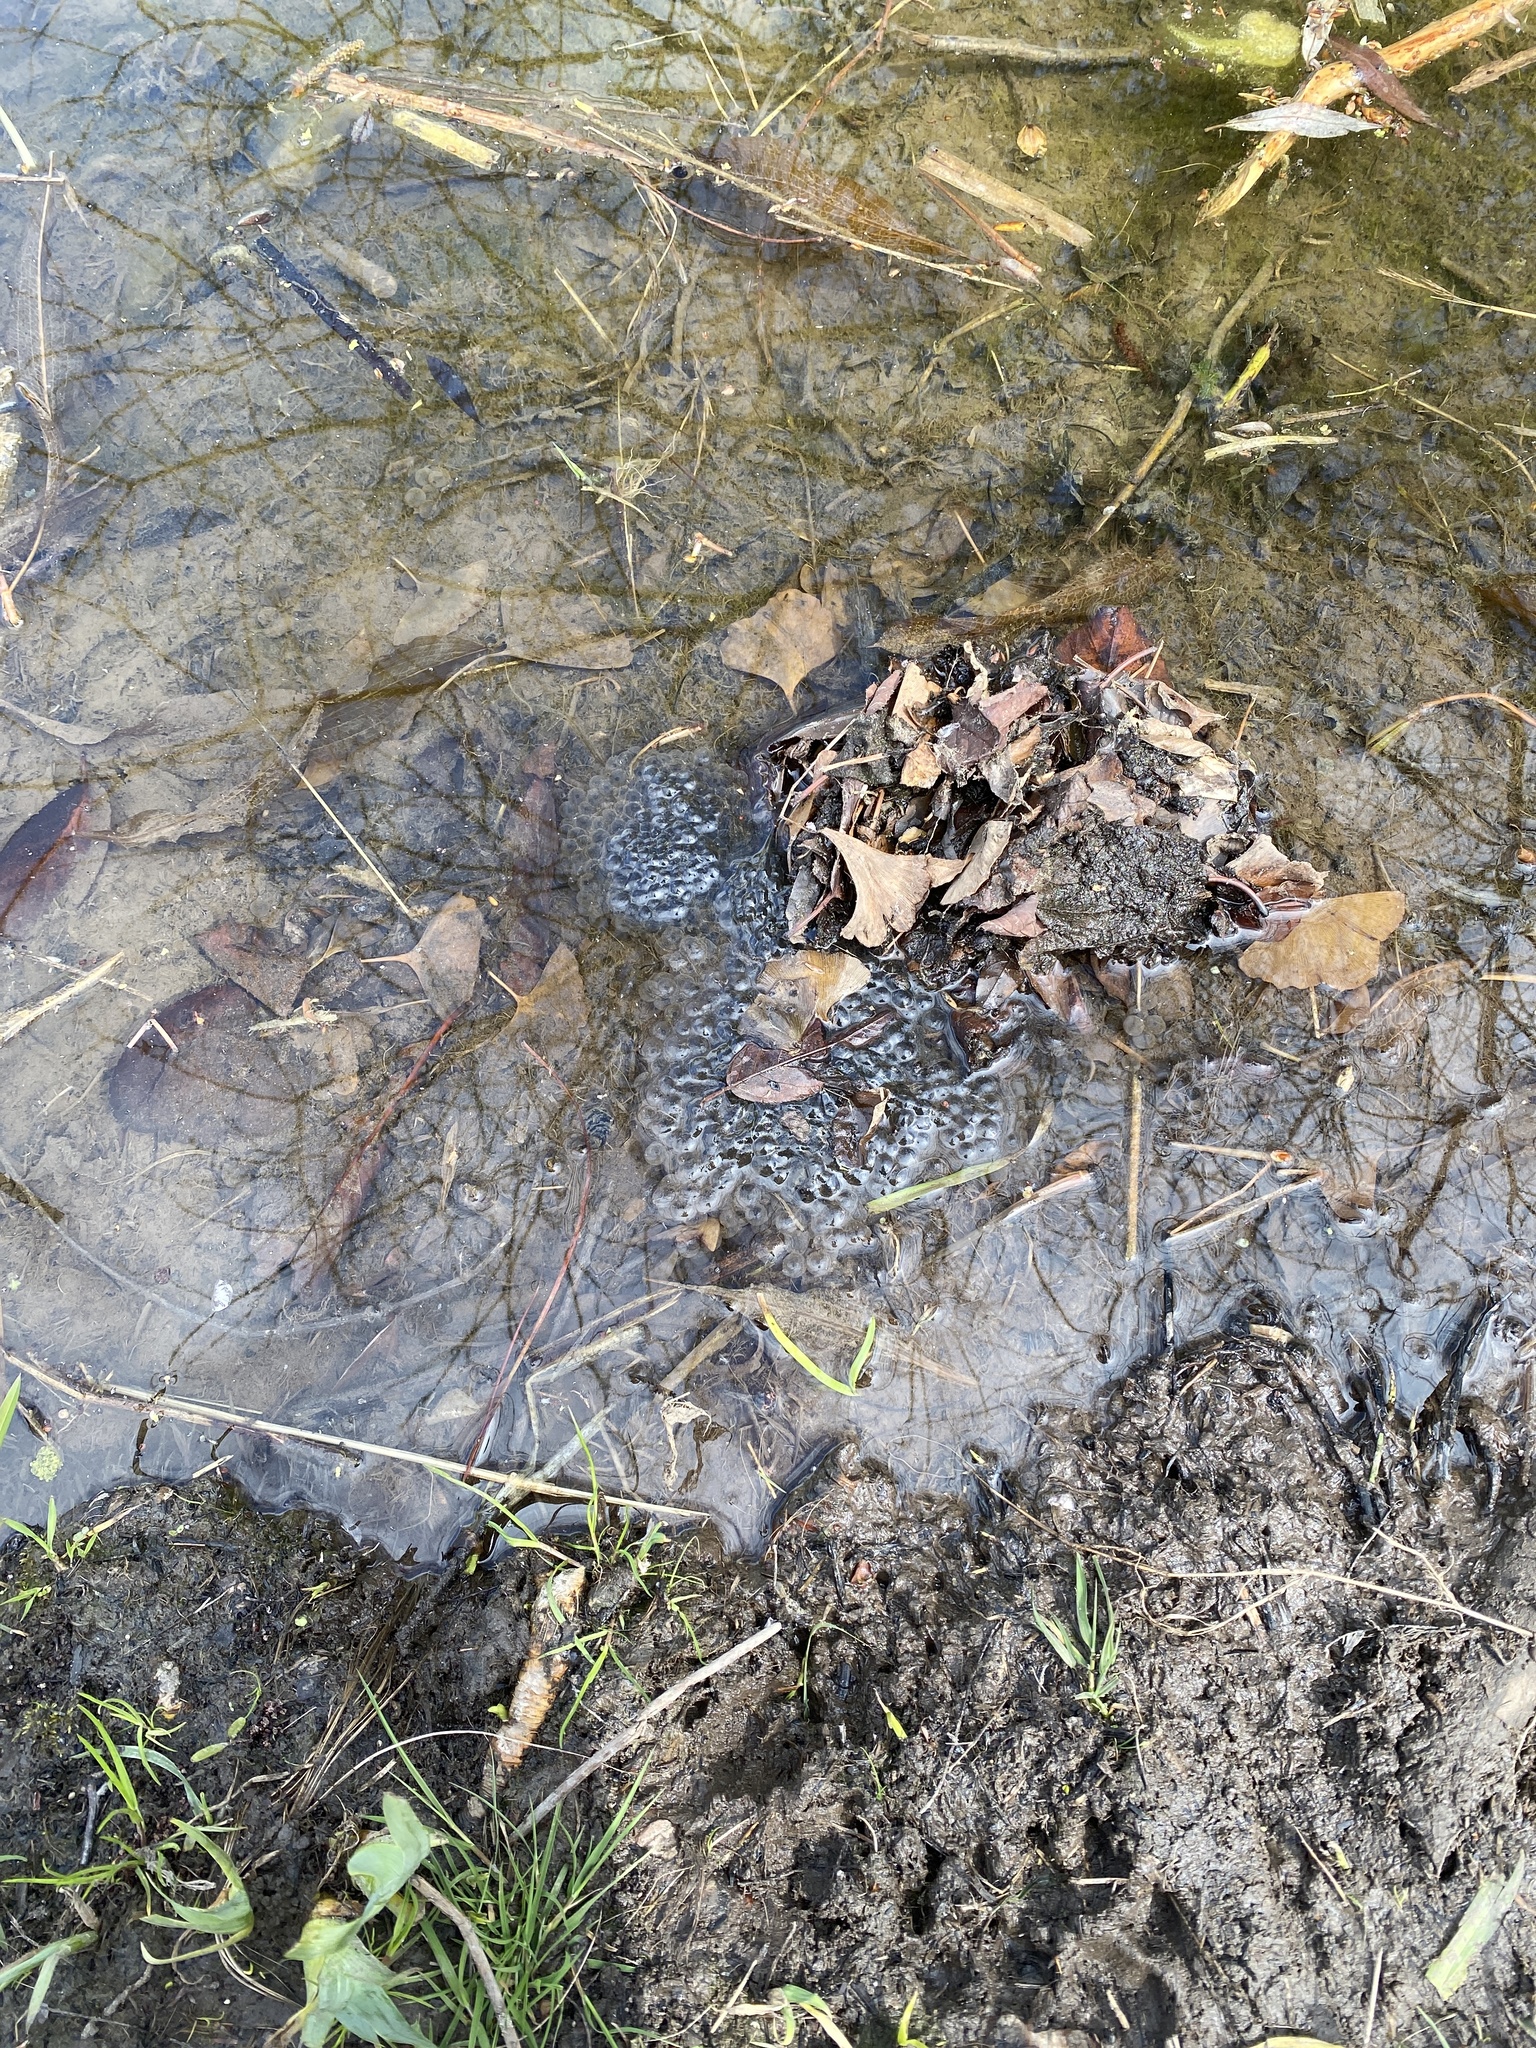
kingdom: Animalia
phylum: Chordata
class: Amphibia
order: Anura
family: Ranidae
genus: Rana
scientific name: Rana temporaria
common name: Common frog
